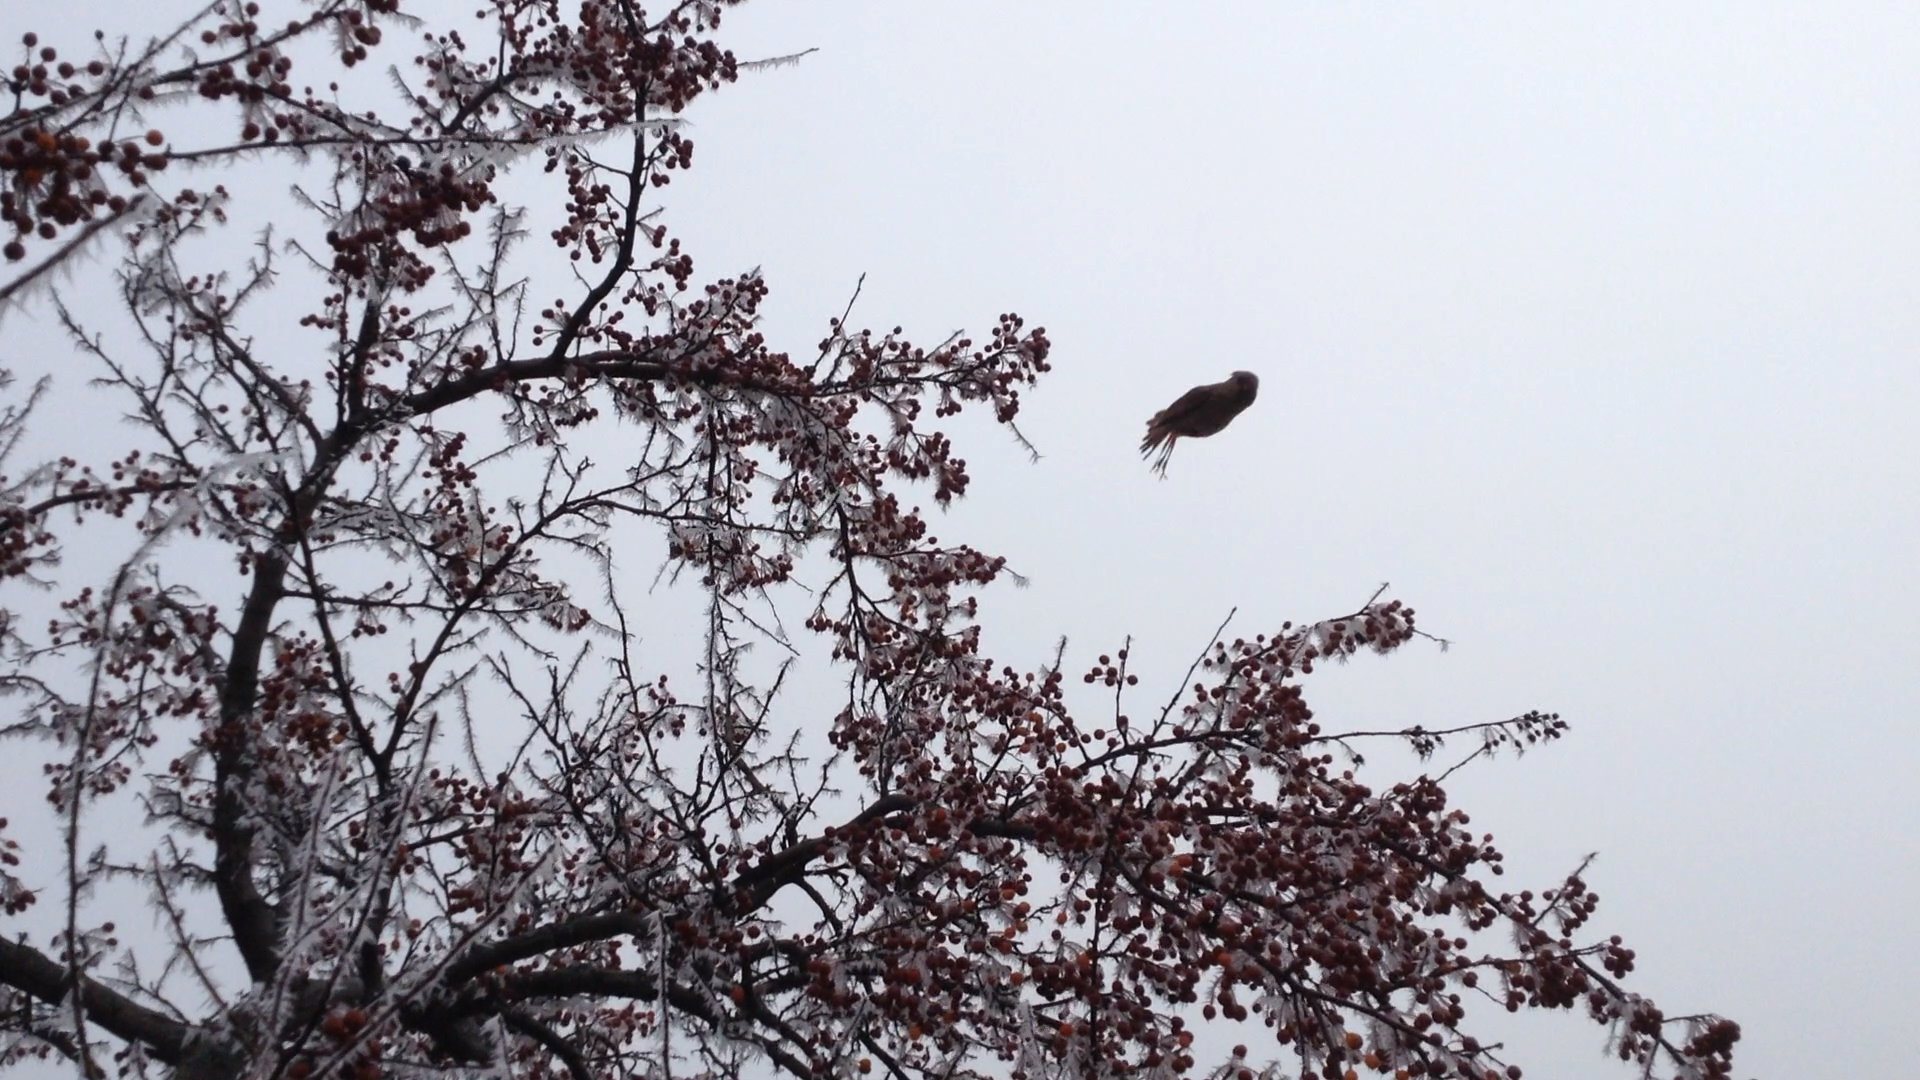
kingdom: Animalia
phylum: Chordata
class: Aves
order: Passeriformes
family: Cardinalidae
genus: Cardinalis
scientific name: Cardinalis cardinalis
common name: Northern cardinal
